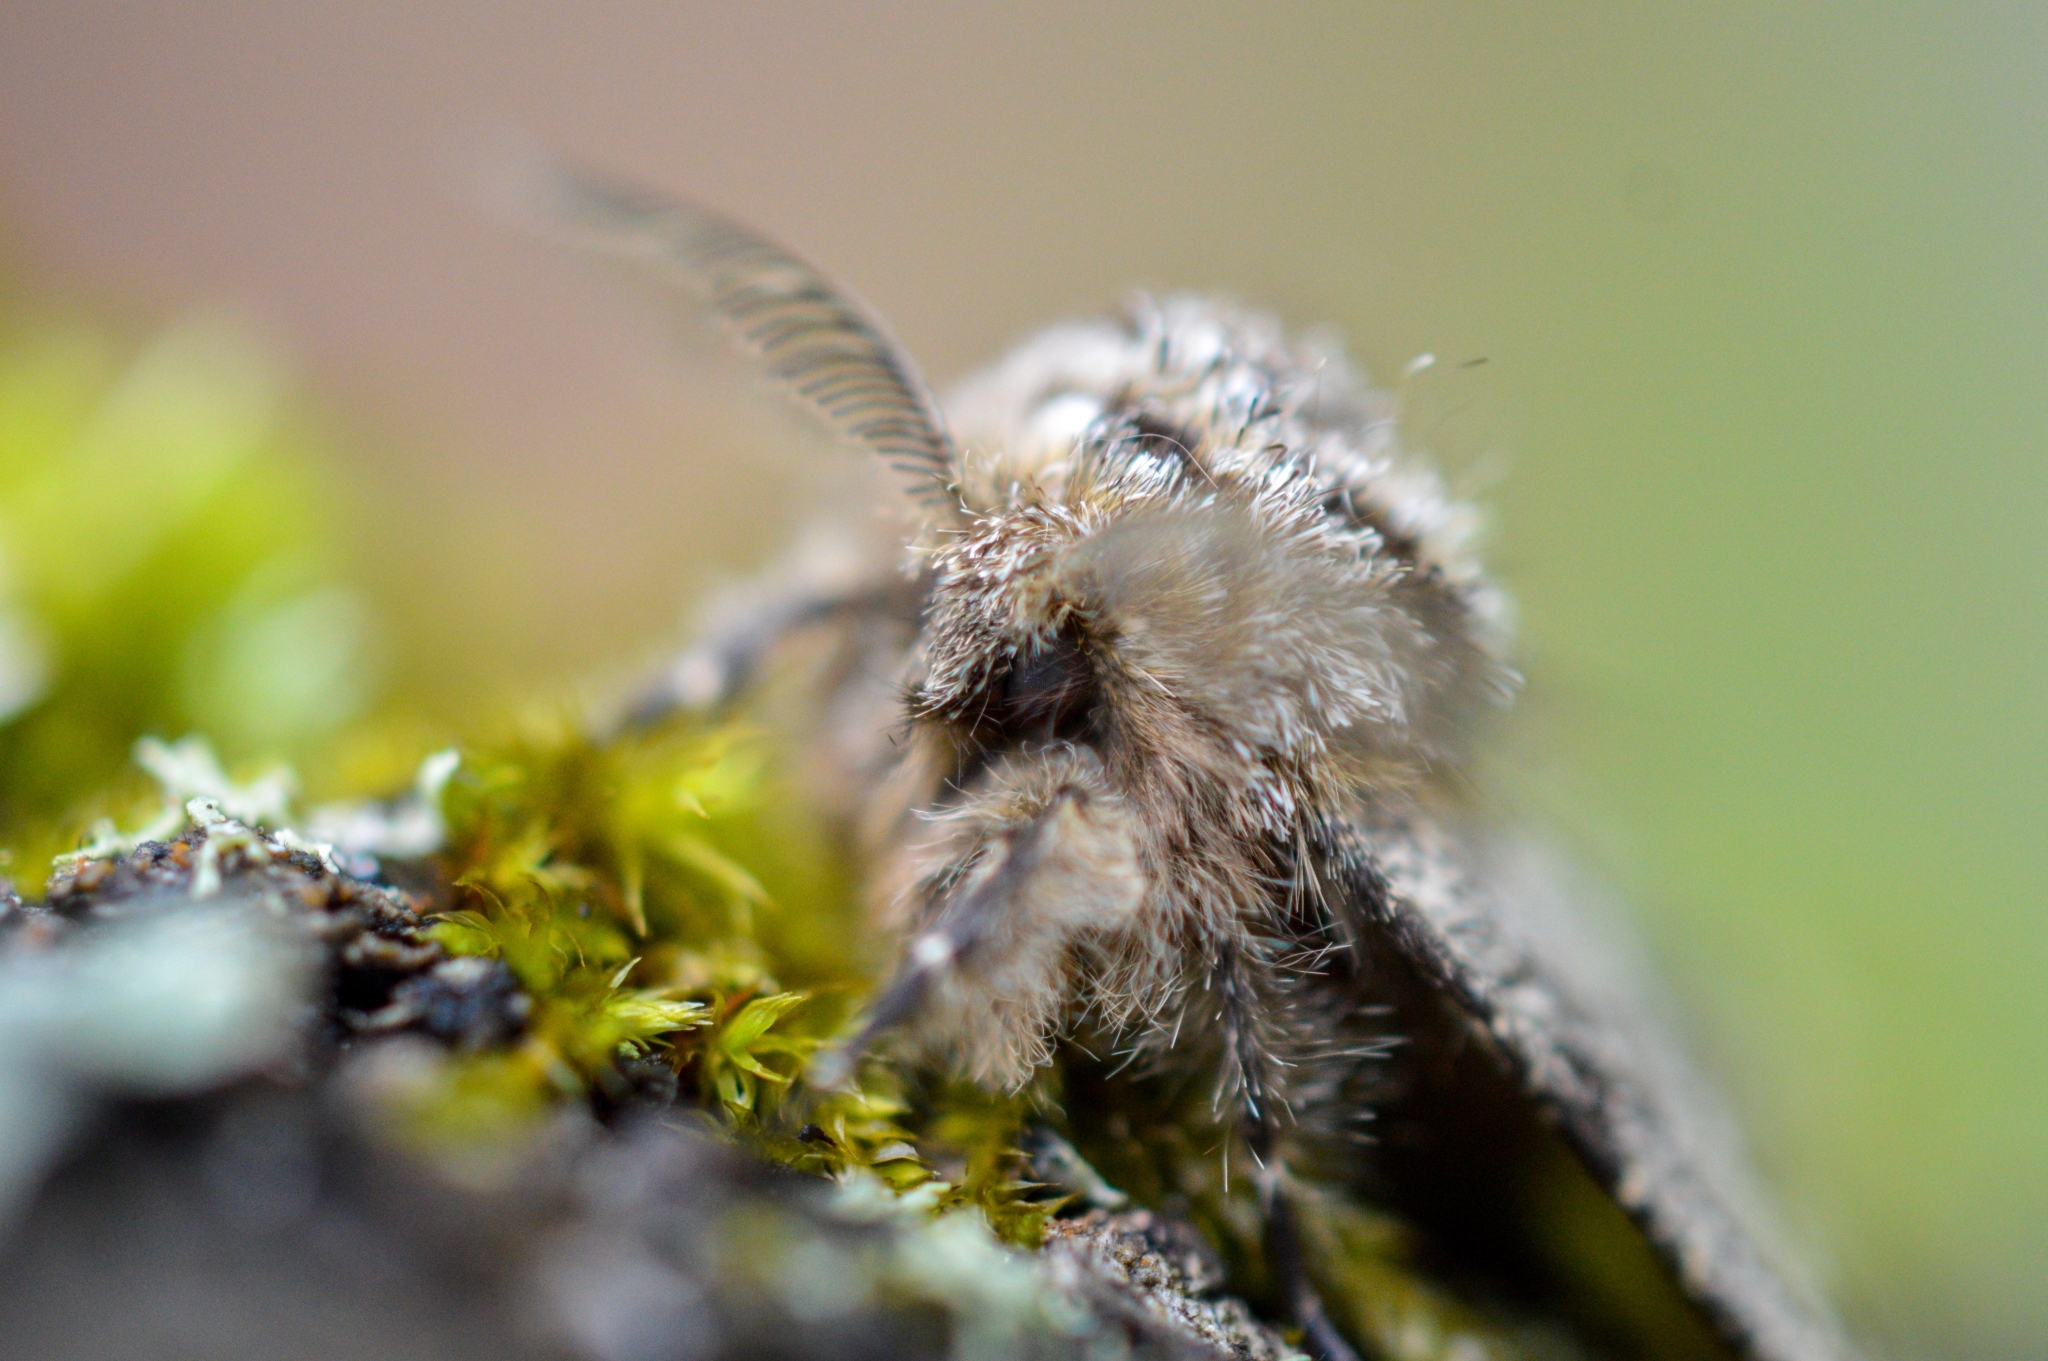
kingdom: Animalia
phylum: Arthropoda
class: Insecta
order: Lepidoptera
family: Geometridae
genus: Lycia
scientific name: Lycia hirtaria
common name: Brindled beauty
